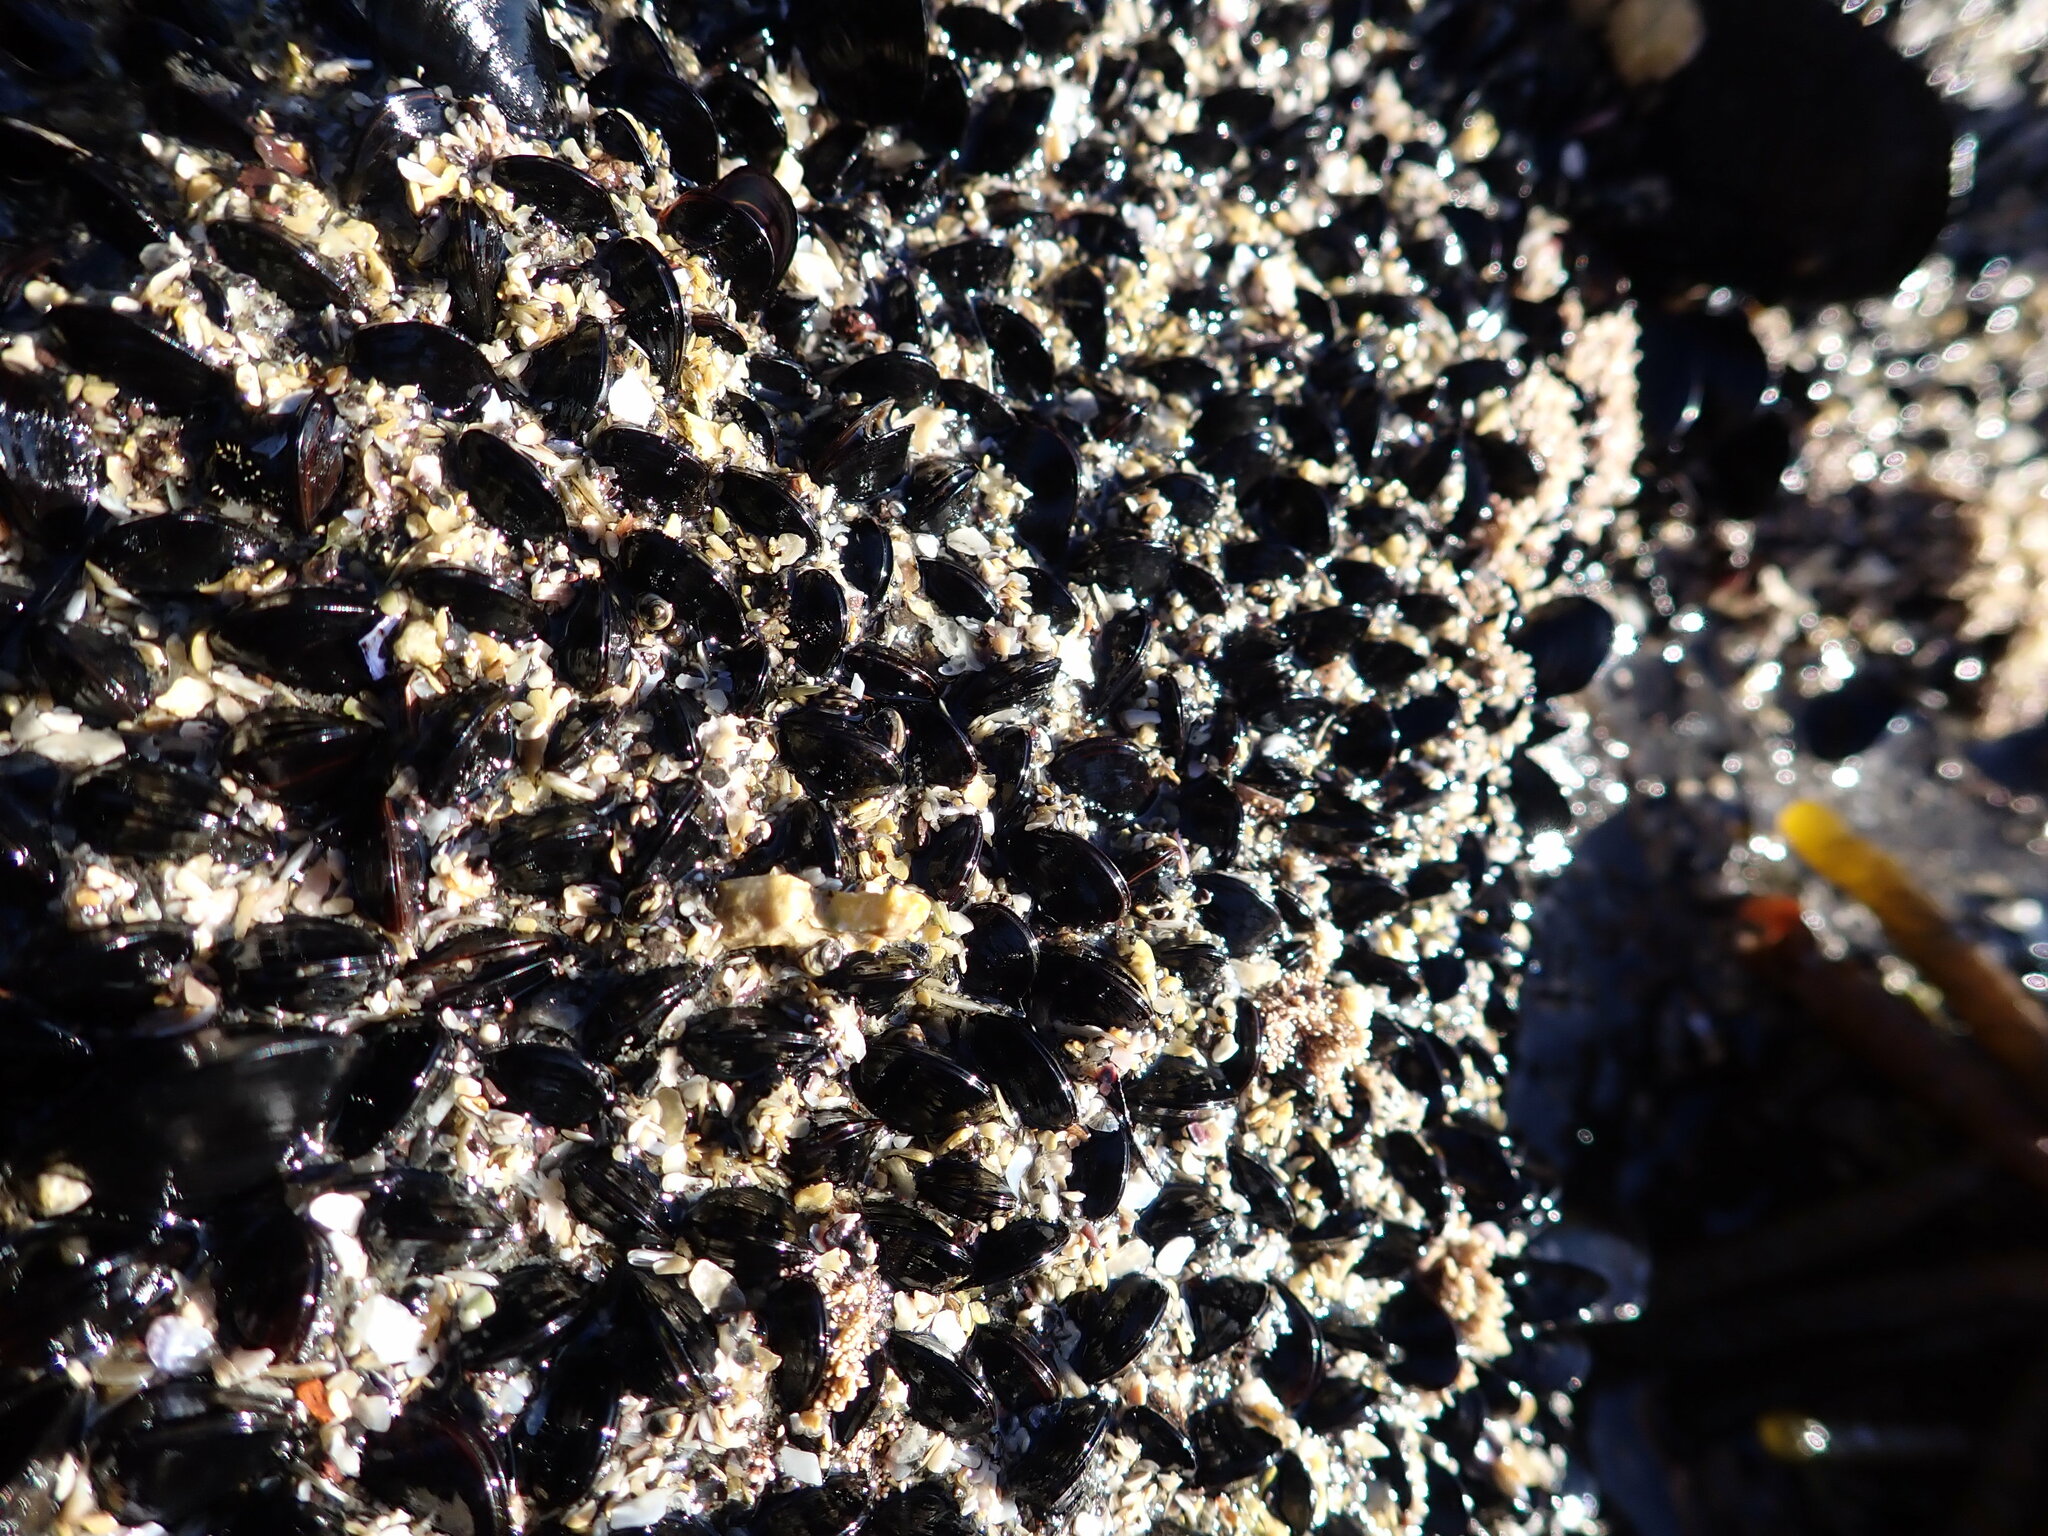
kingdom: Animalia
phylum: Mollusca
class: Bivalvia
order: Mytilida
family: Mytilidae
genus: Xenostrobus
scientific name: Xenostrobus neozelanicus
